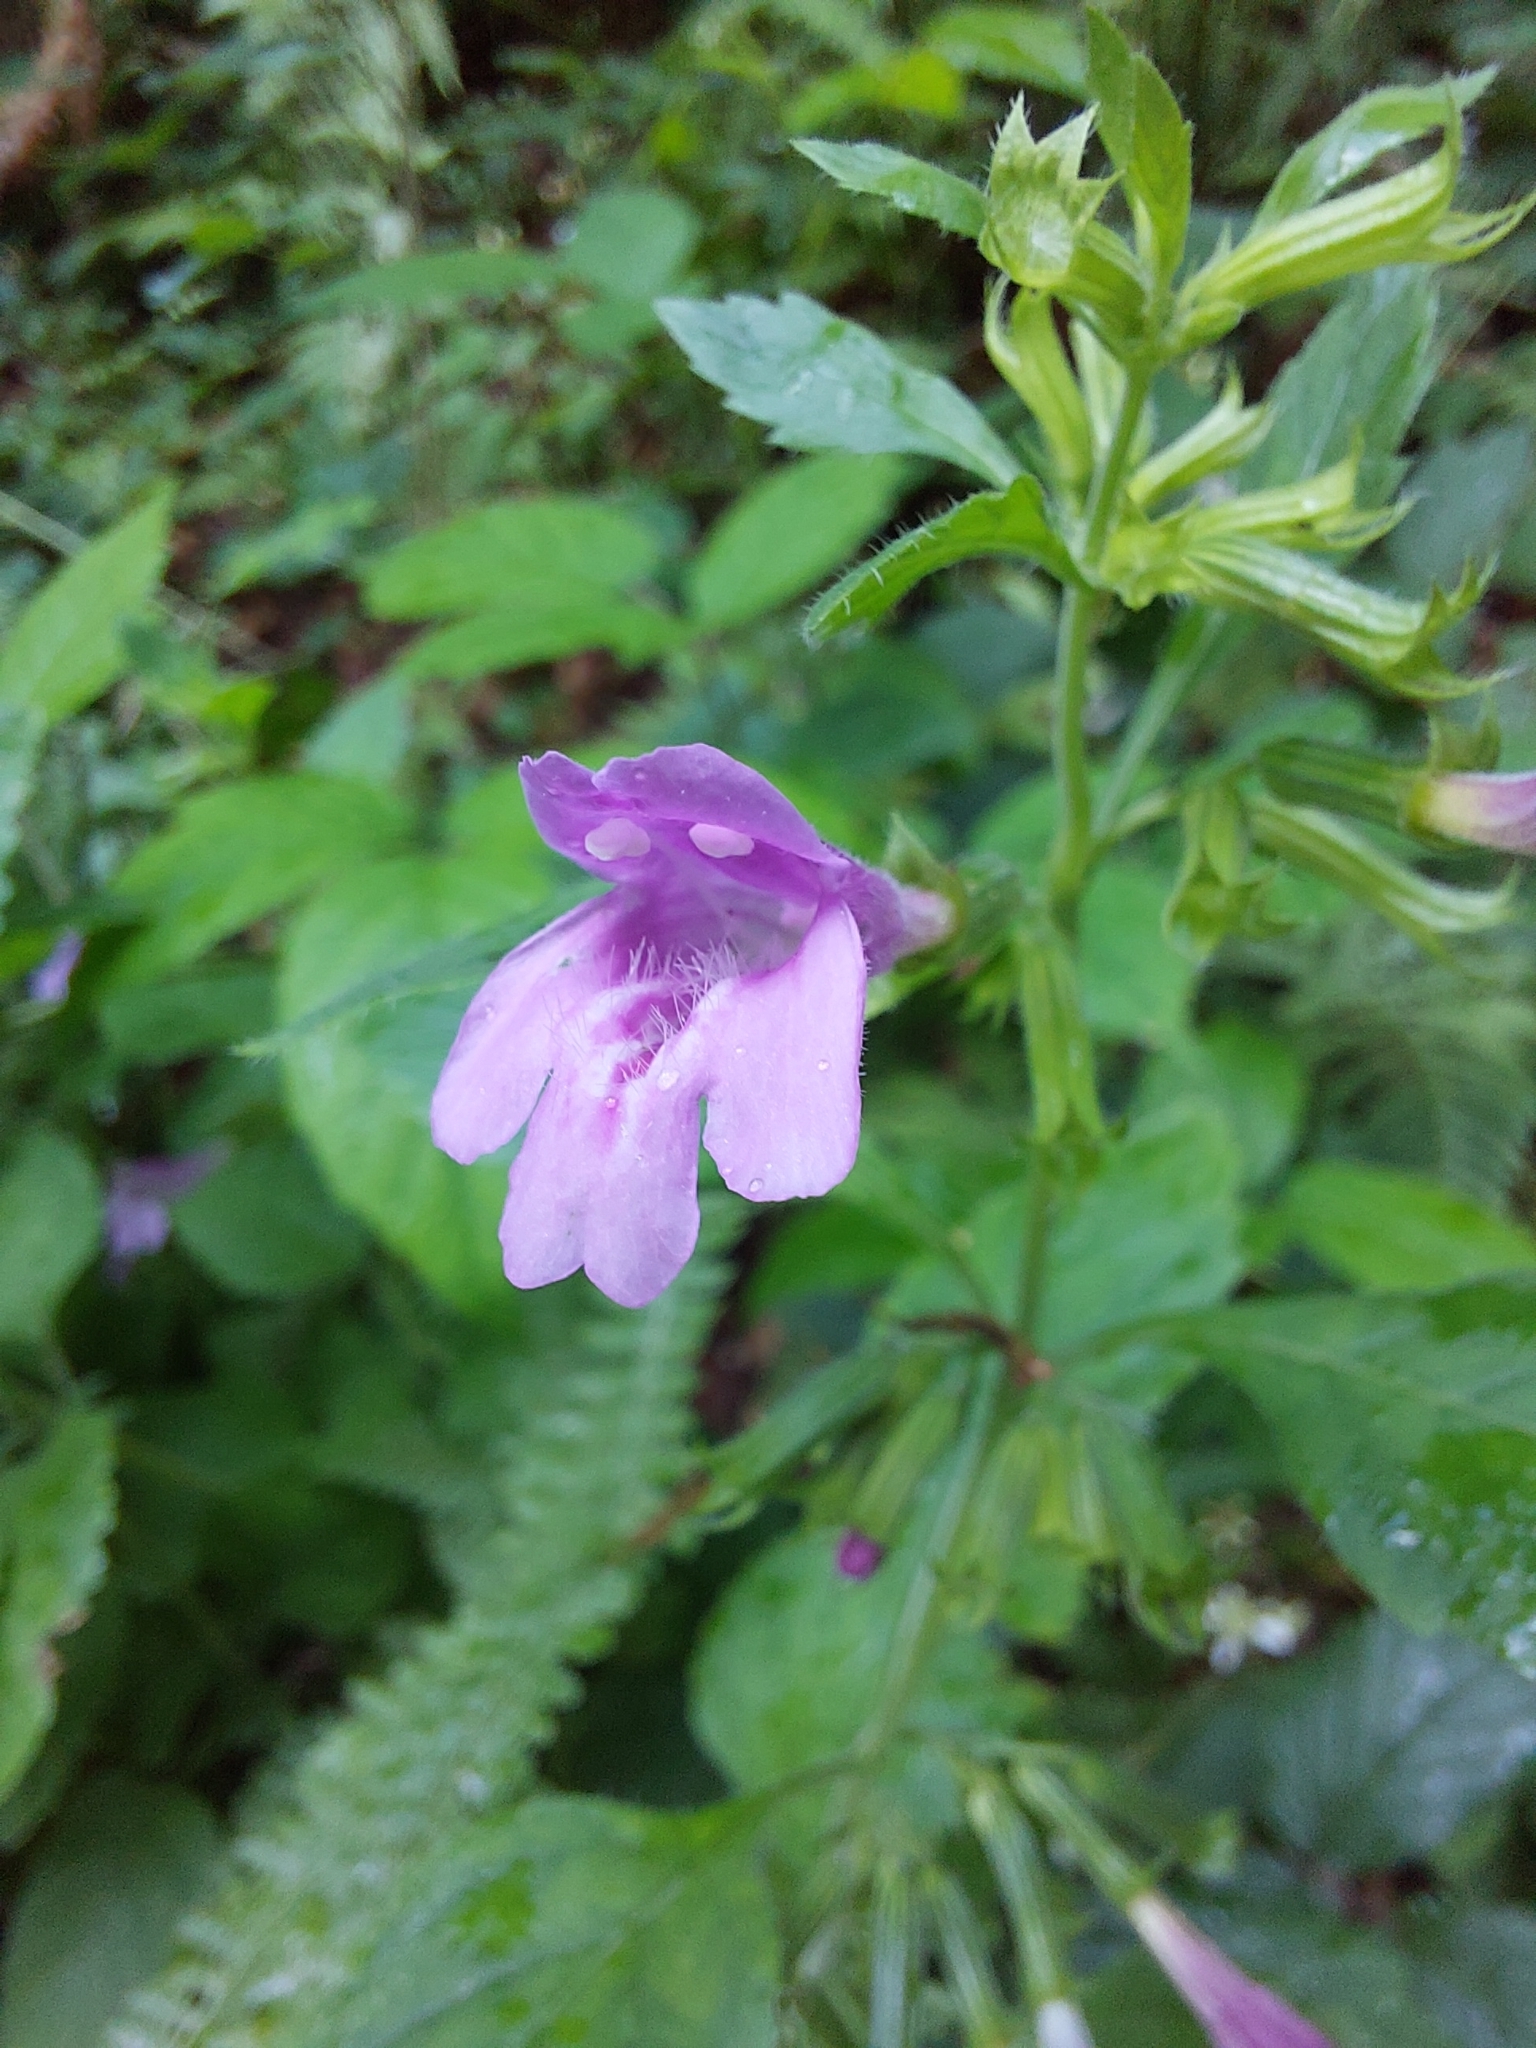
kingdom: Plantae
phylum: Tracheophyta
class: Magnoliopsida
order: Lamiales
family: Lamiaceae
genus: Clinopodium
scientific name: Clinopodium grandiflorum
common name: Greater calamint
